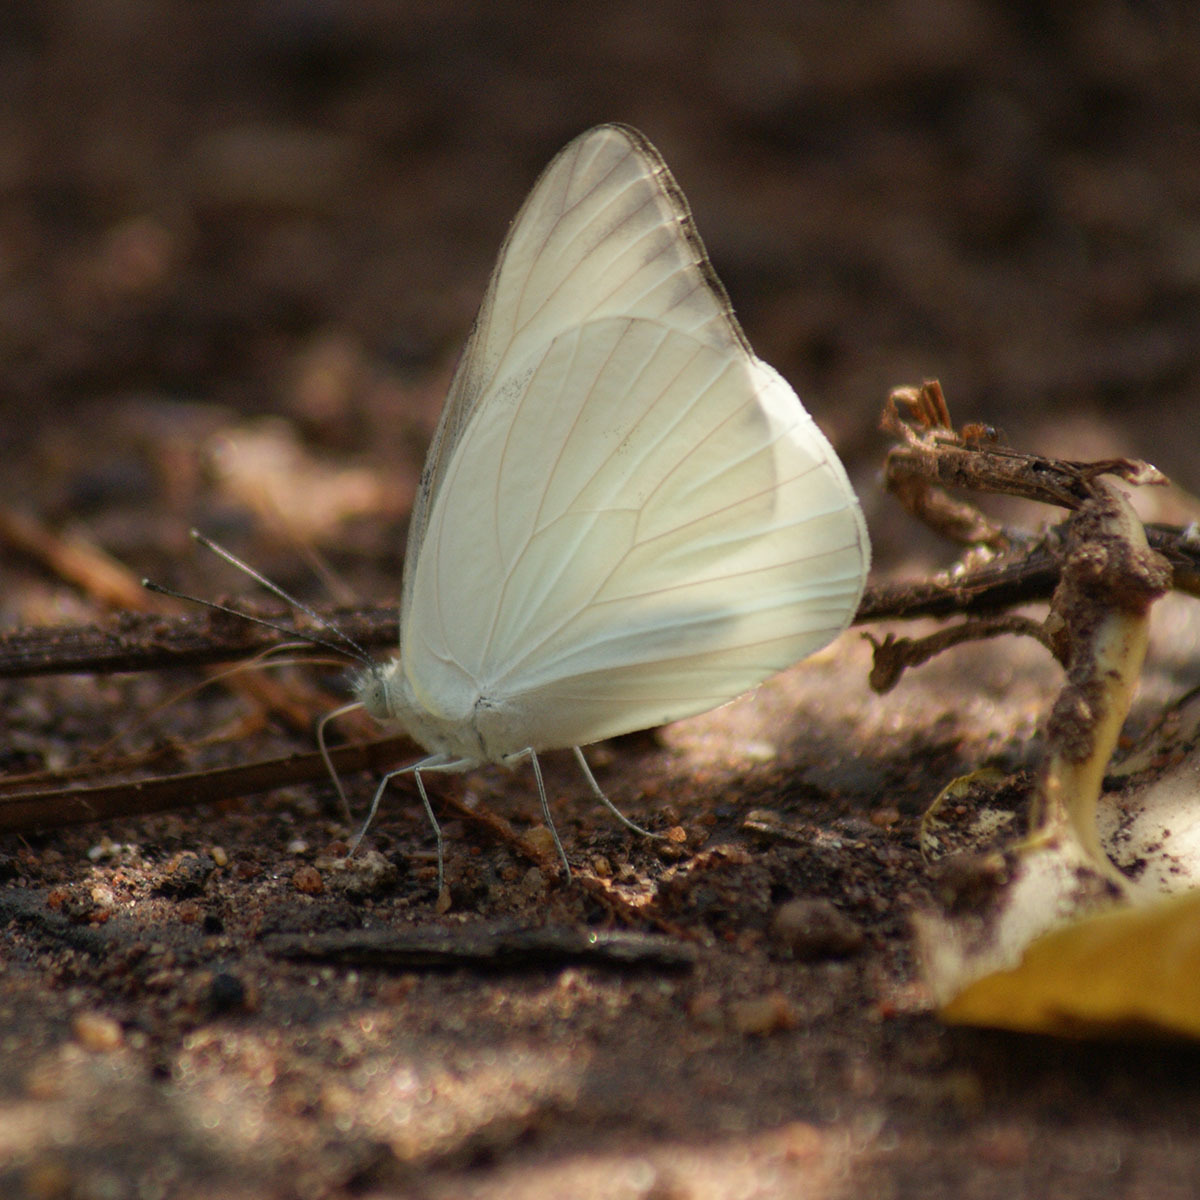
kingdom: Animalia
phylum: Arthropoda
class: Insecta
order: Lepidoptera
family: Pieridae
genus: Appias
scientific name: Appias albina
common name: Common albatross
